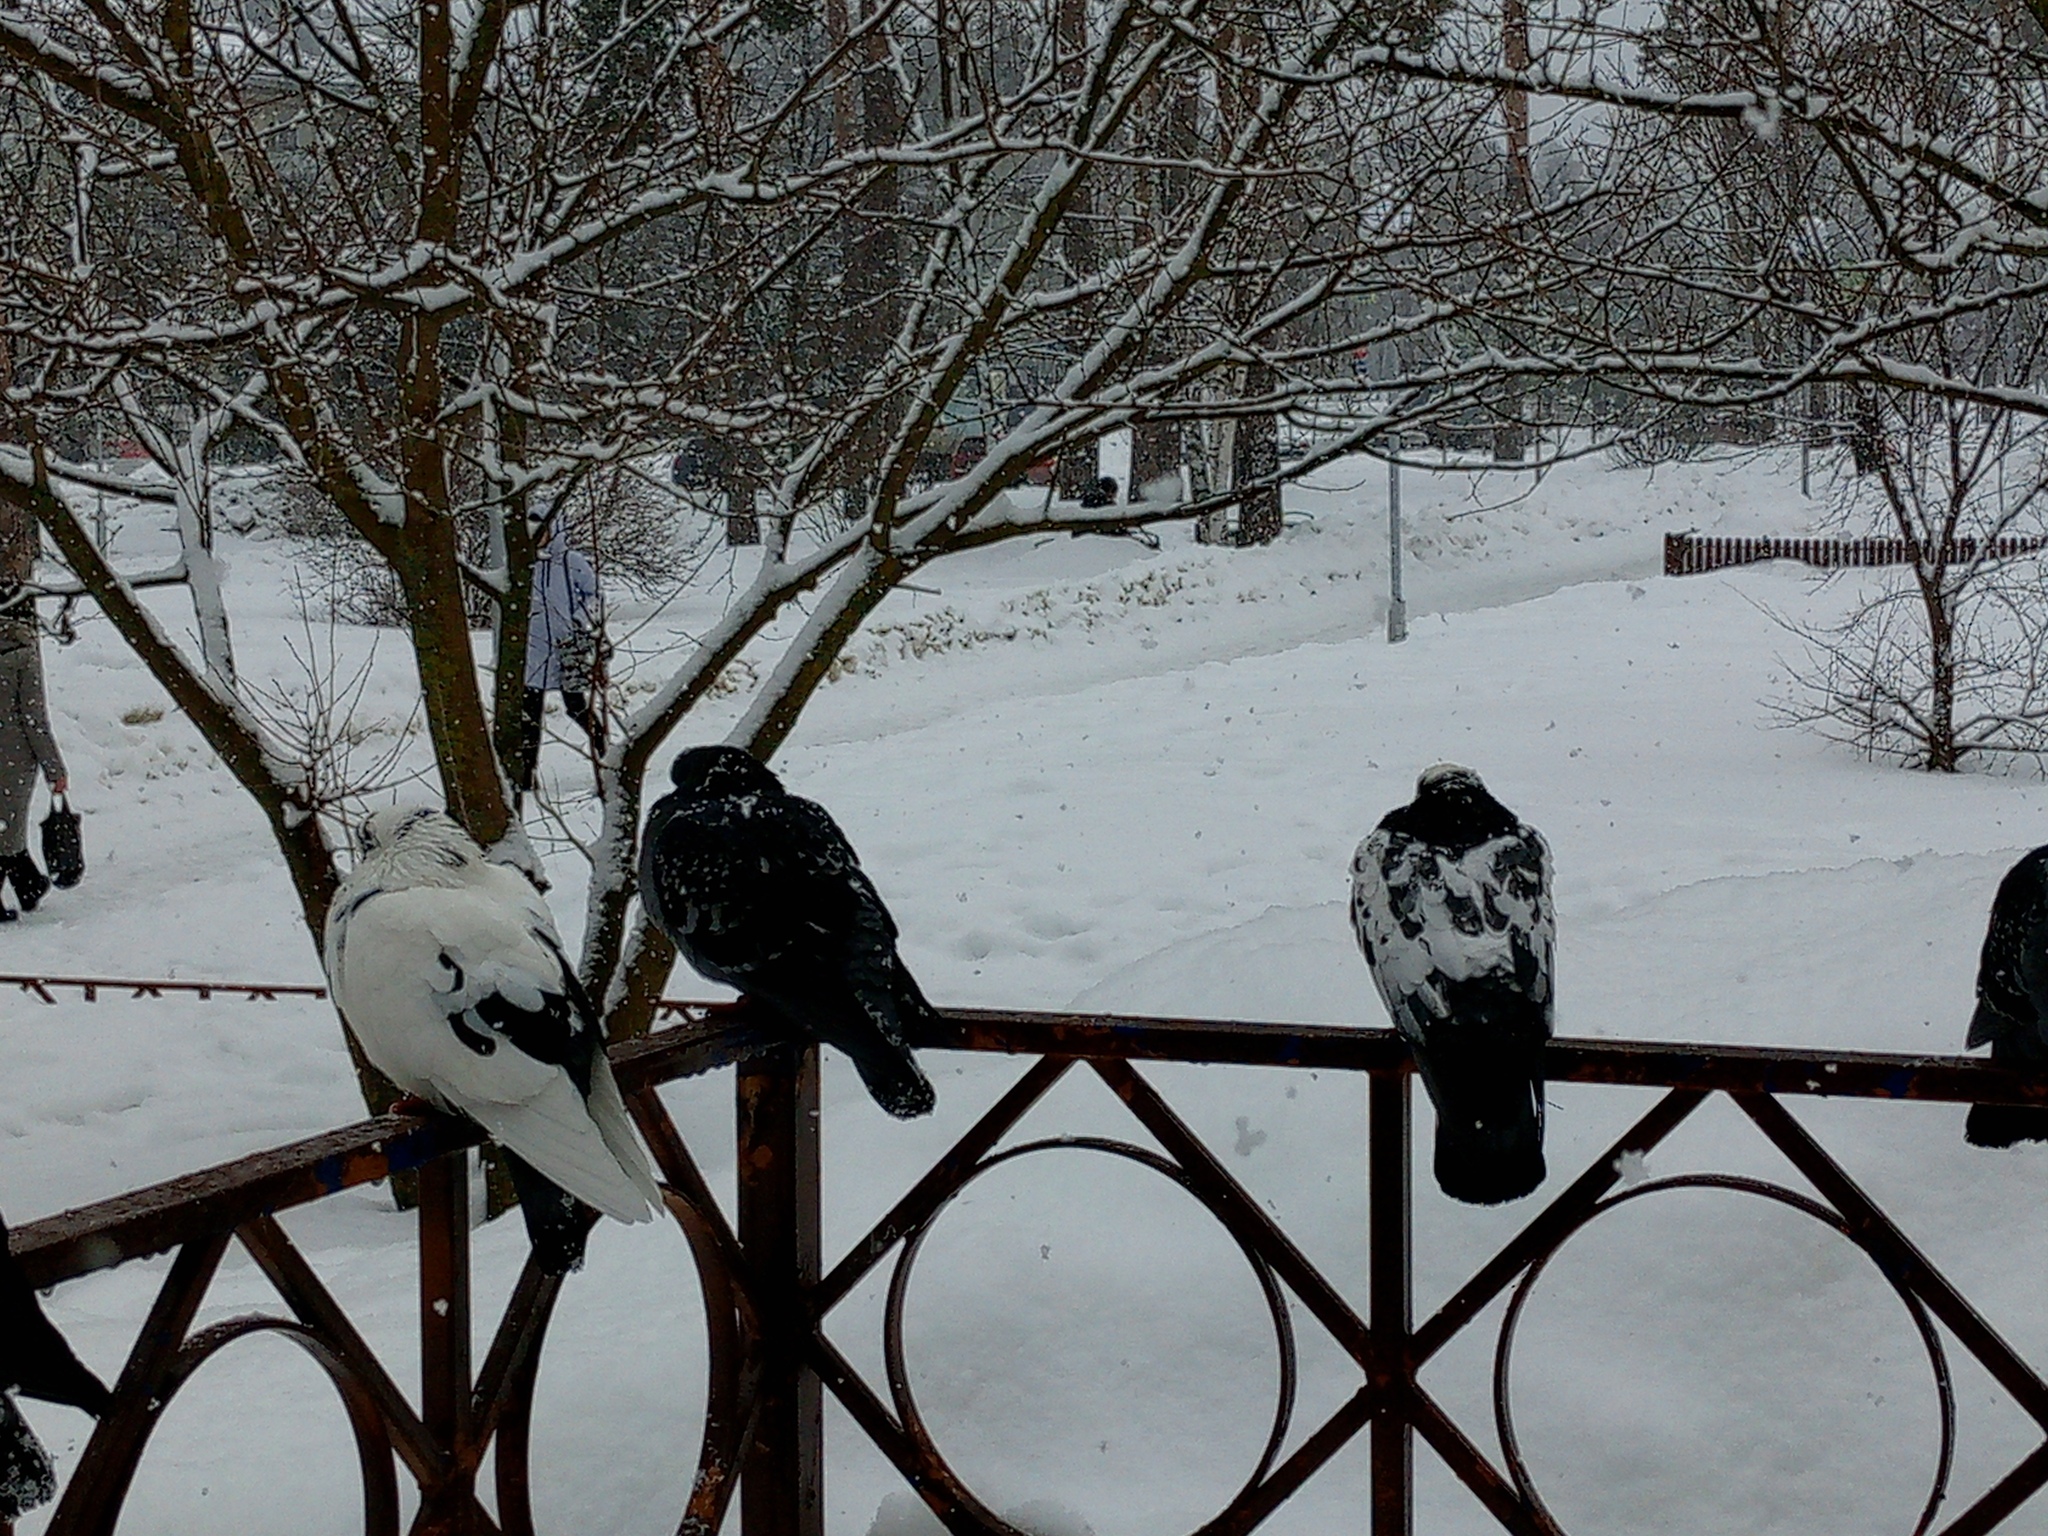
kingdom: Animalia
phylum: Chordata
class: Aves
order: Columbiformes
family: Columbidae
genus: Columba
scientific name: Columba livia
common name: Rock pigeon
